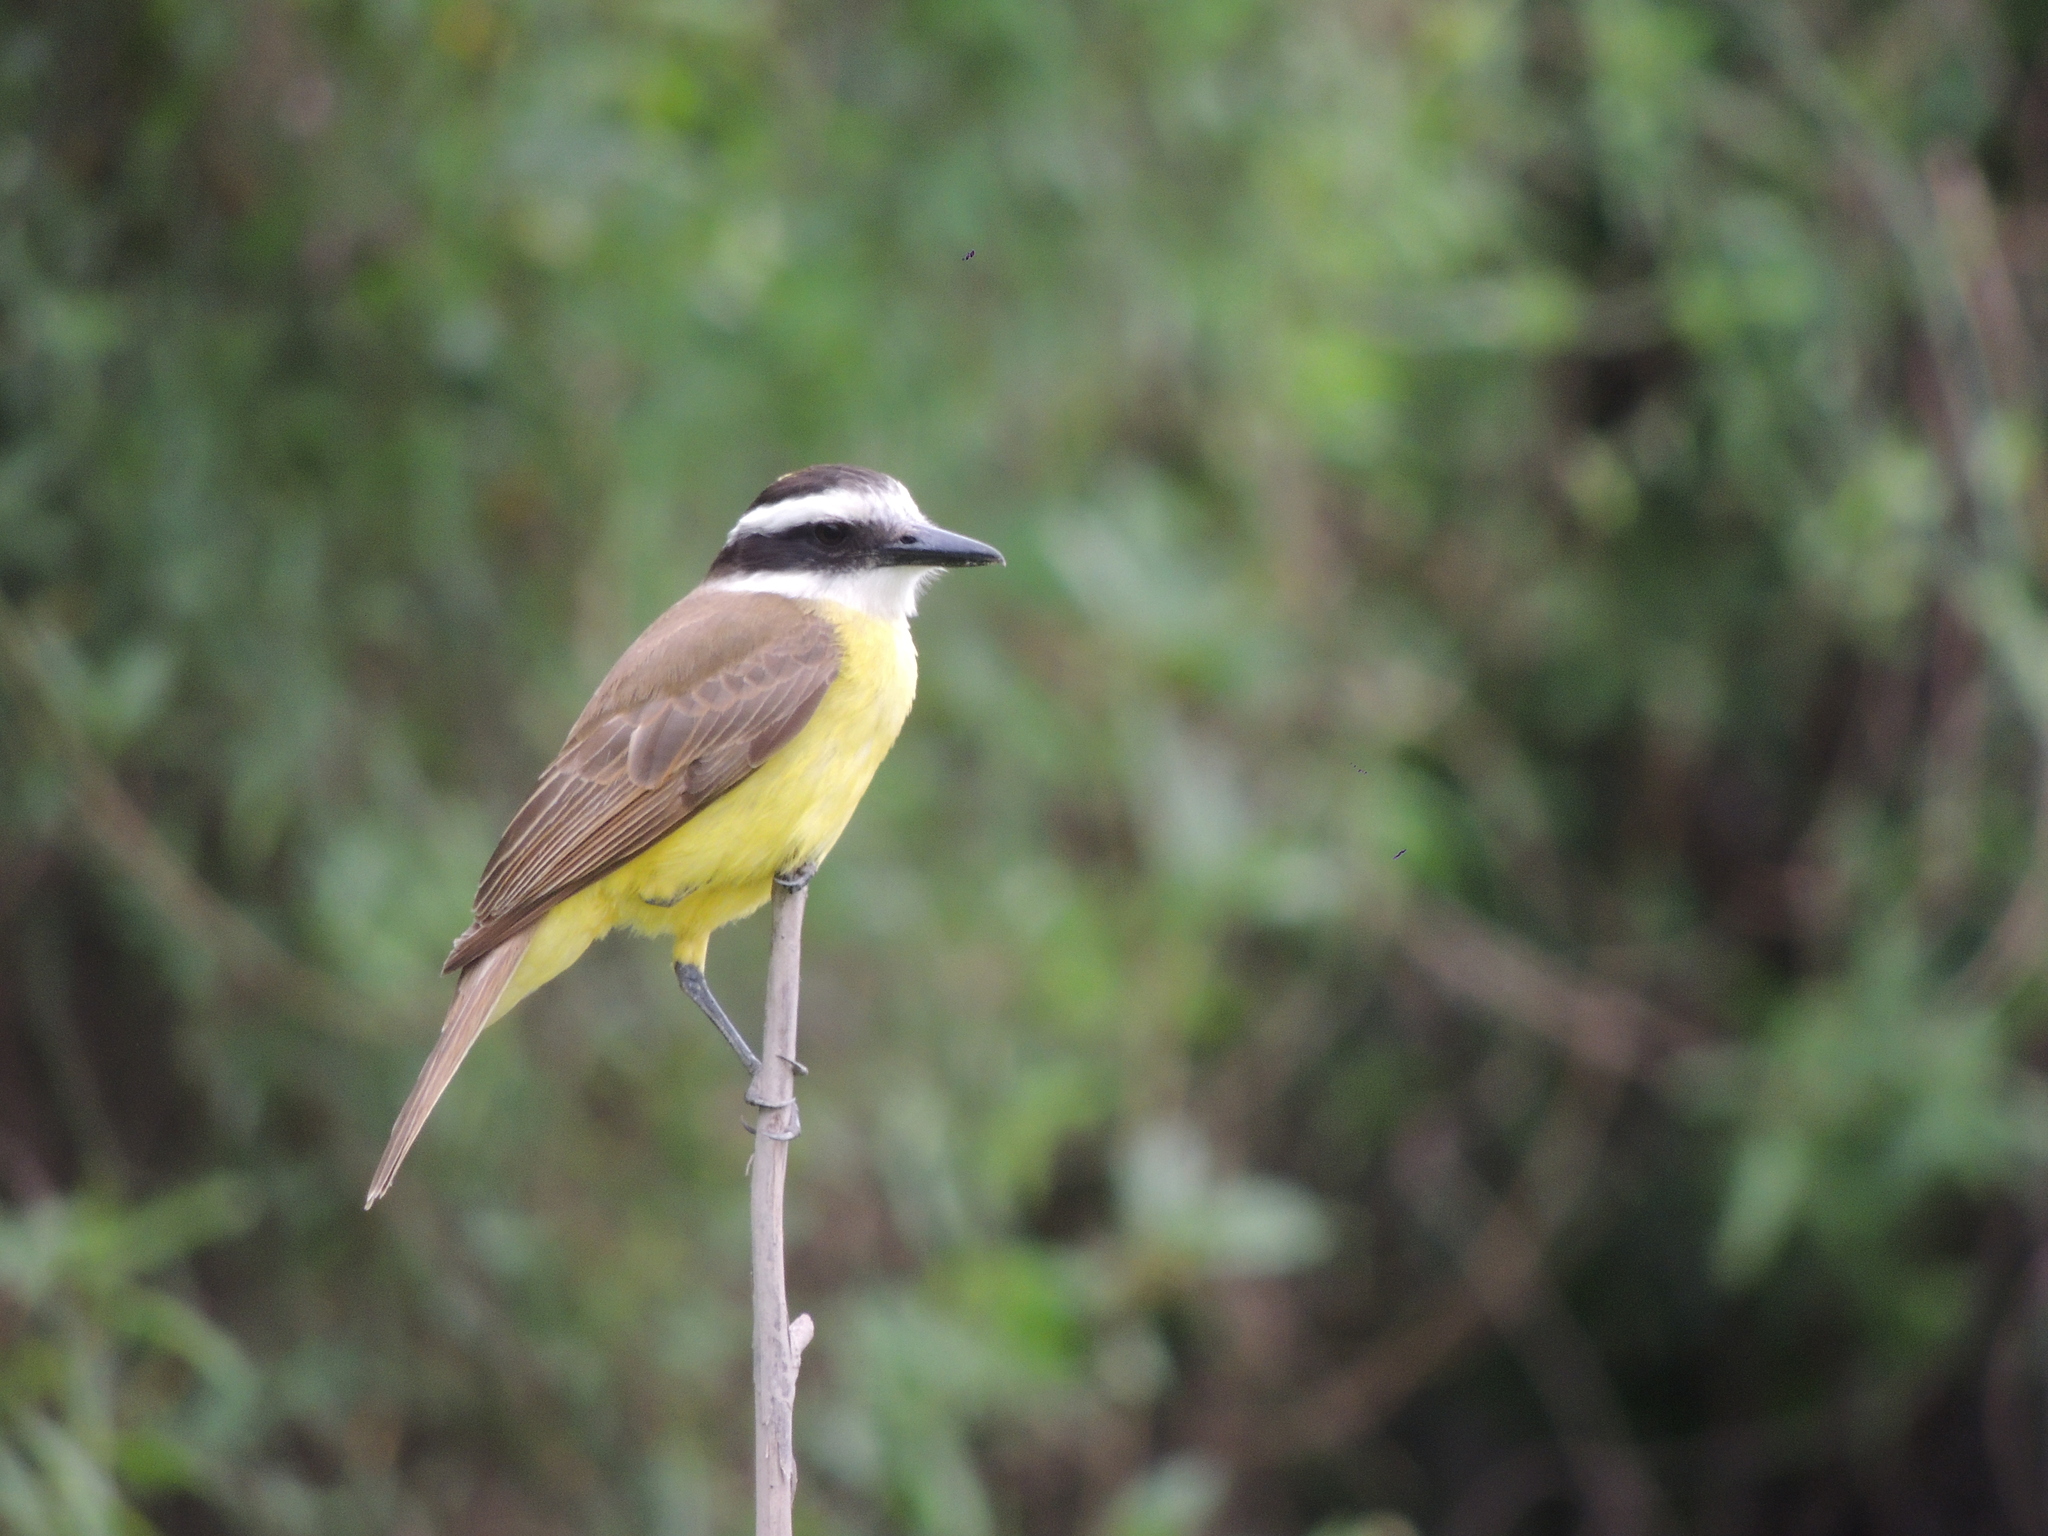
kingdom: Animalia
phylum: Chordata
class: Aves
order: Passeriformes
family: Tyrannidae
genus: Pitangus
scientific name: Pitangus sulphuratus
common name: Great kiskadee
